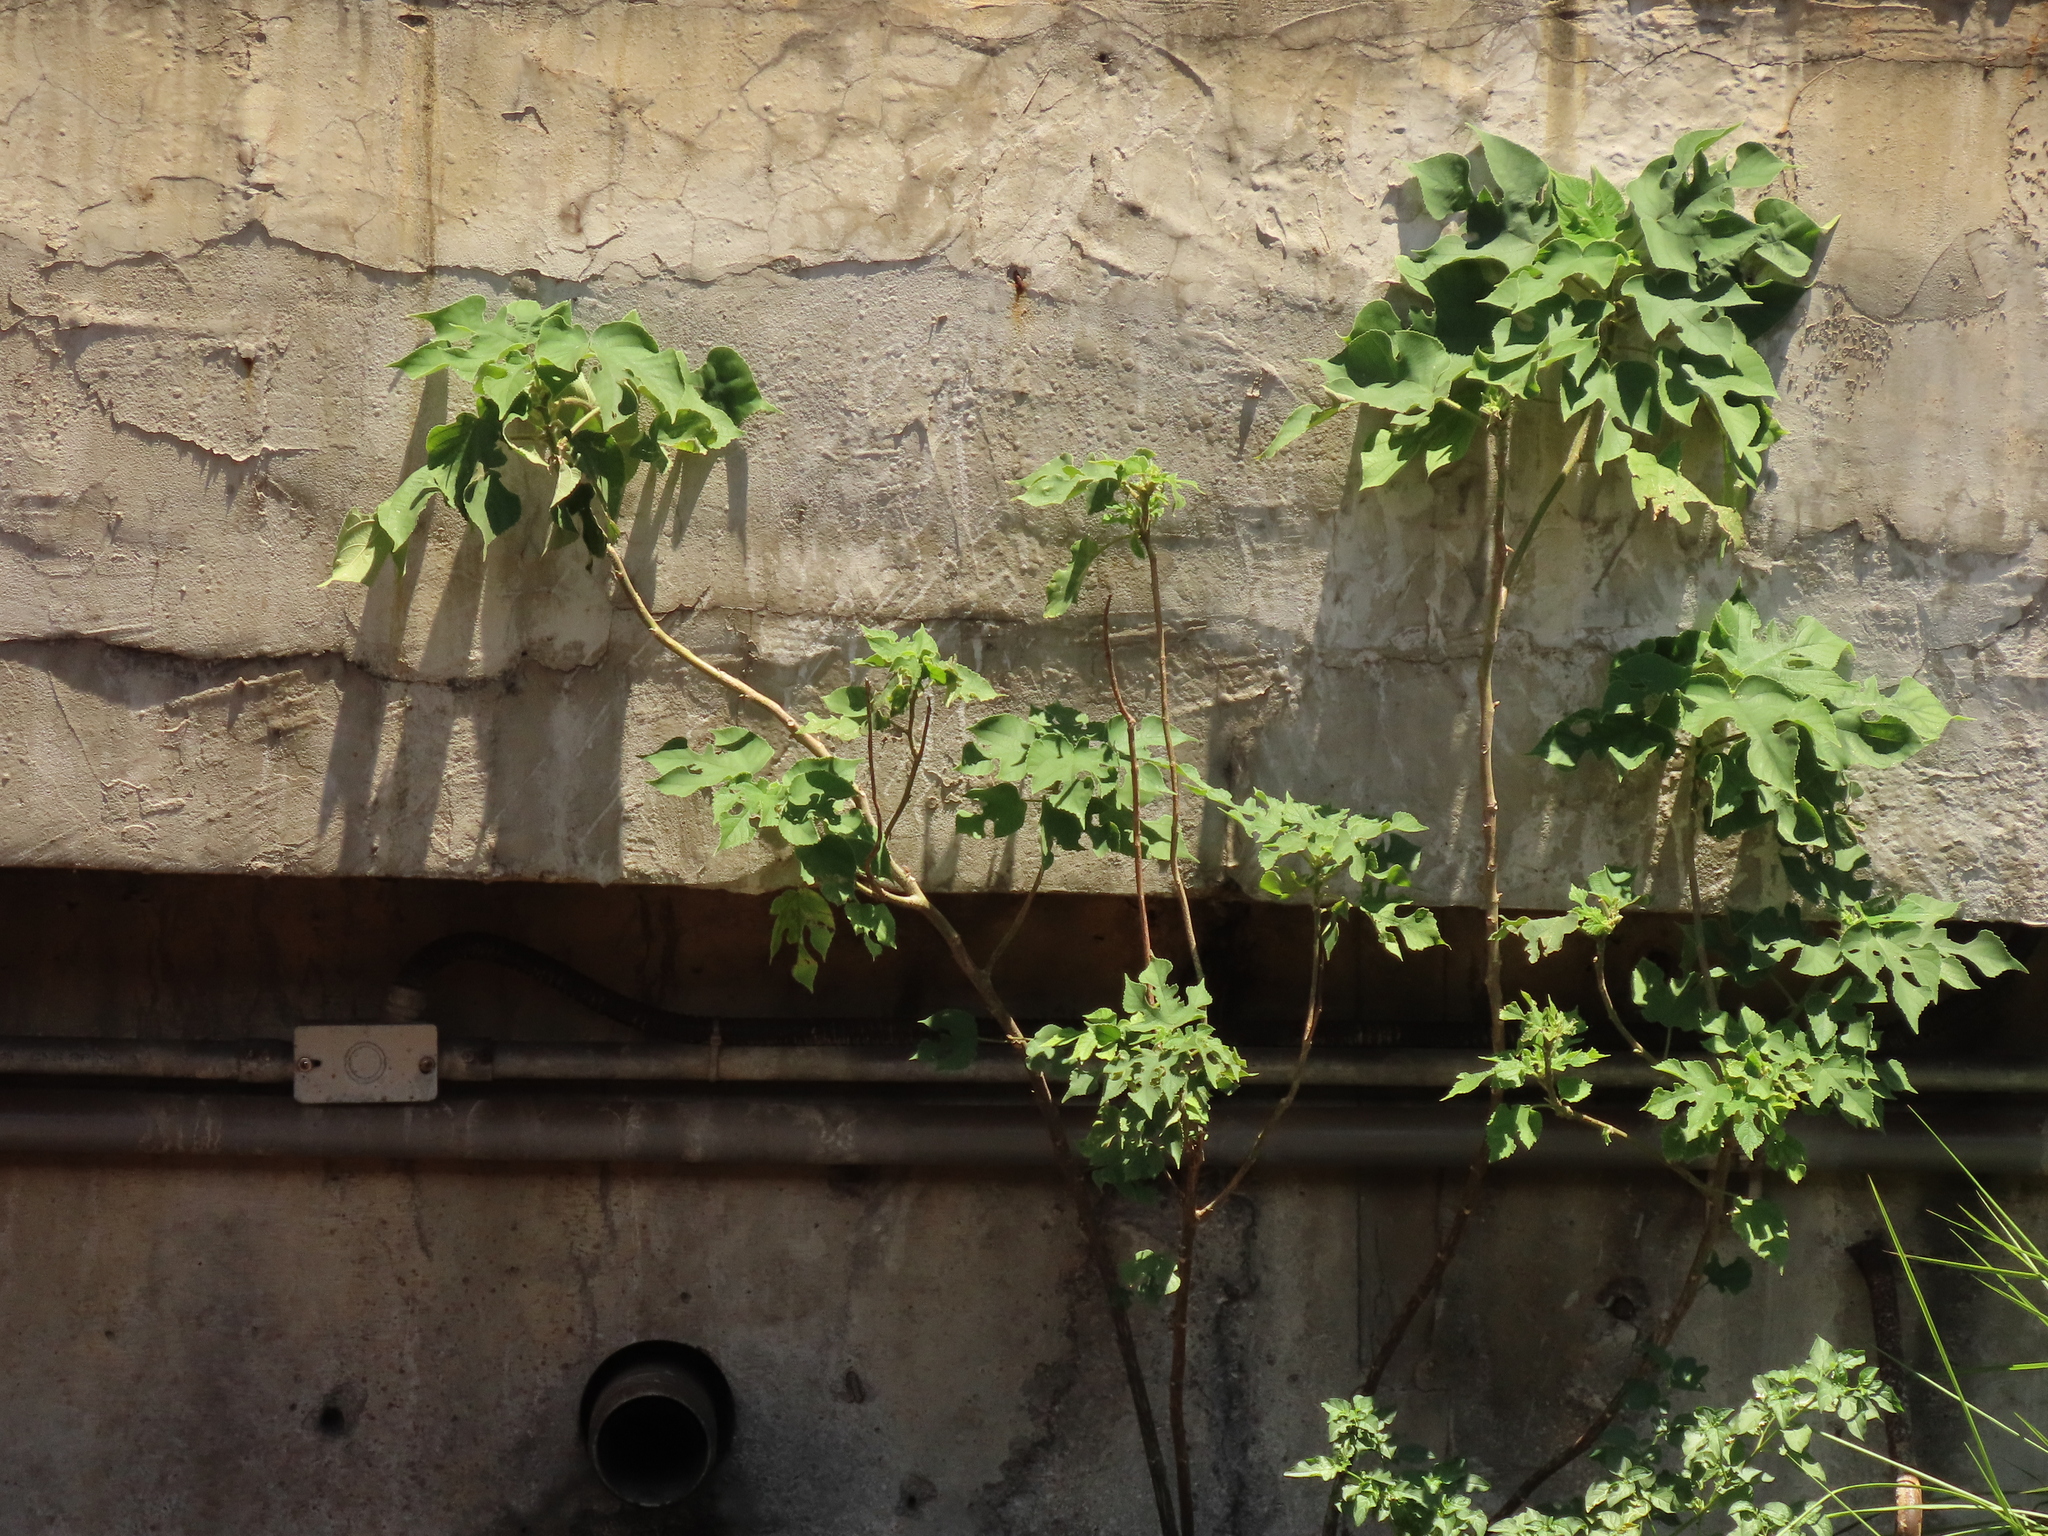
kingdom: Plantae
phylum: Tracheophyta
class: Magnoliopsida
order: Rosales
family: Moraceae
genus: Broussonetia
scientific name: Broussonetia papyrifera
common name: Paper mulberry
